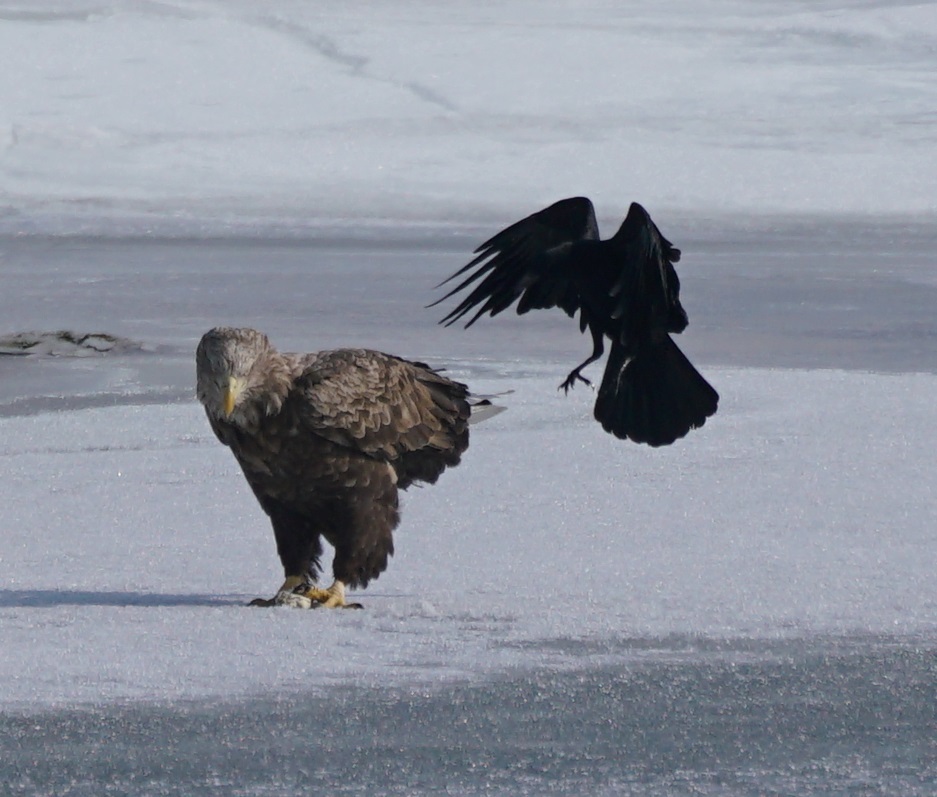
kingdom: Animalia
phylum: Chordata
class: Aves
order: Accipitriformes
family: Accipitridae
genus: Haliaeetus
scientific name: Haliaeetus albicilla
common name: White-tailed eagle
